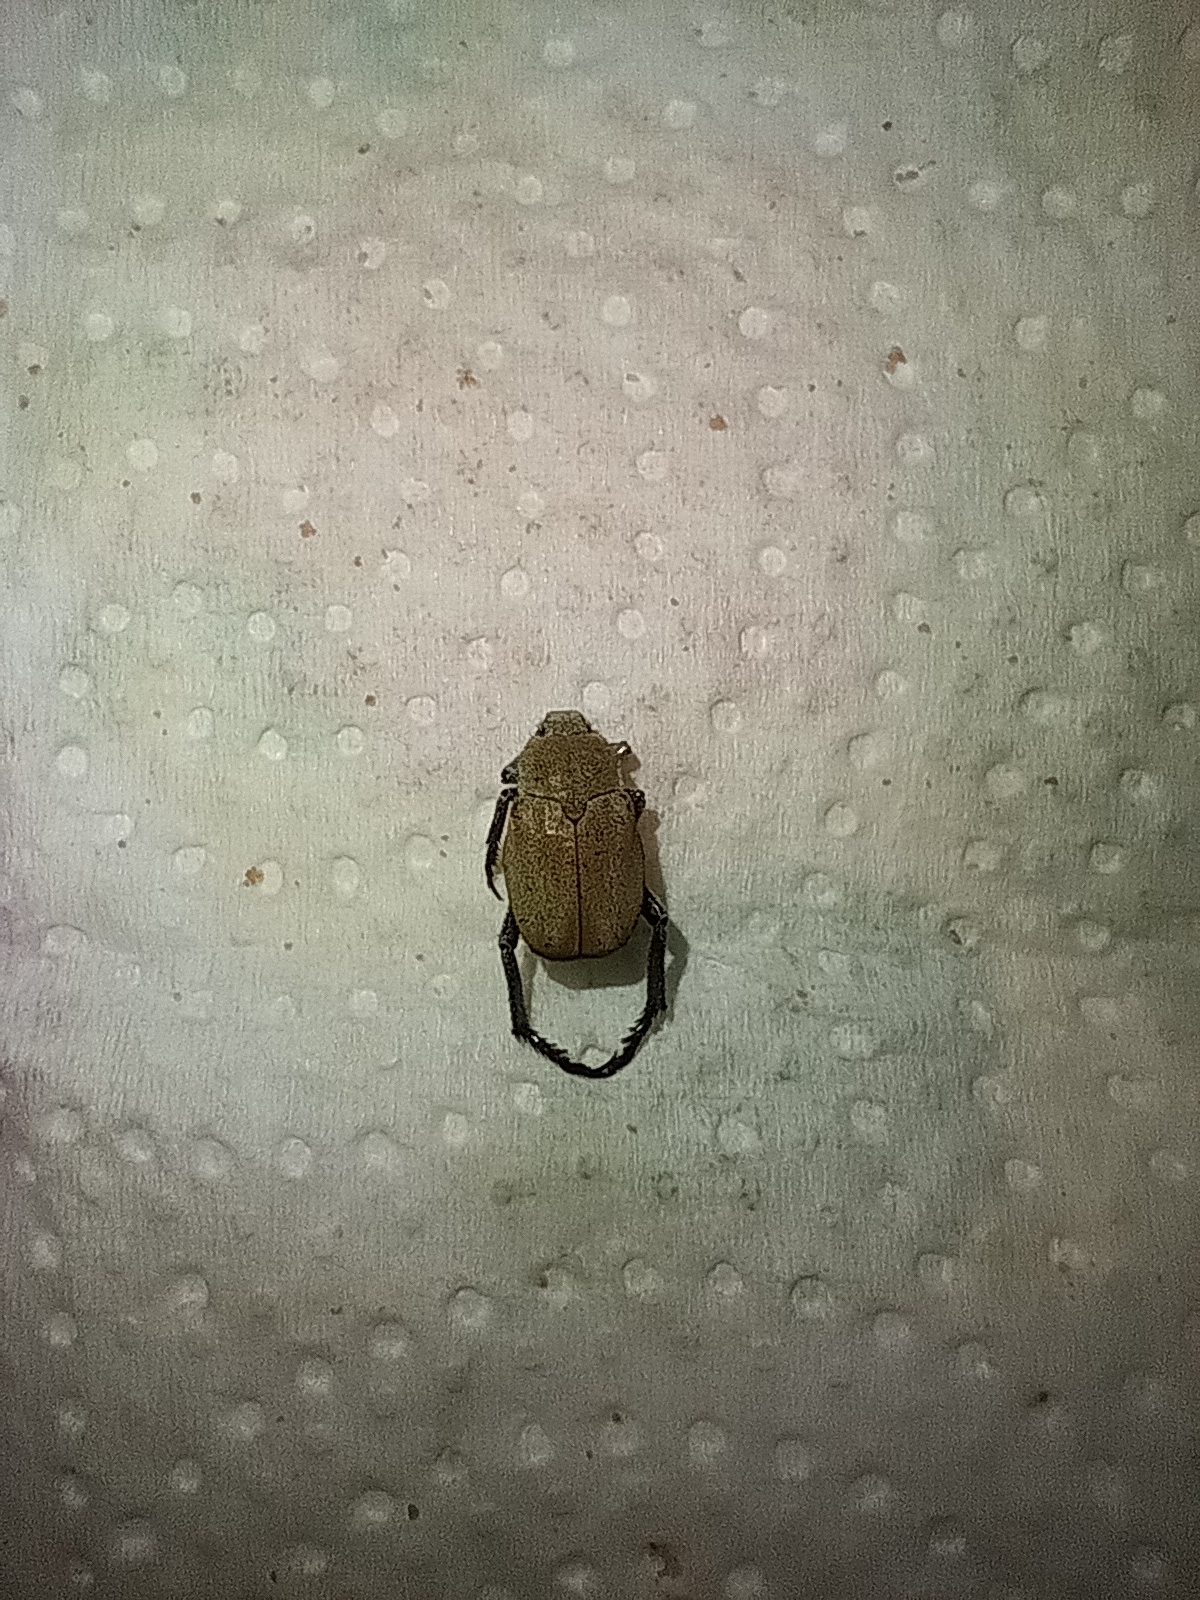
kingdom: Animalia
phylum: Arthropoda
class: Insecta
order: Coleoptera
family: Scarabaeidae
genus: Hoplia
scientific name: Hoplia argentea
